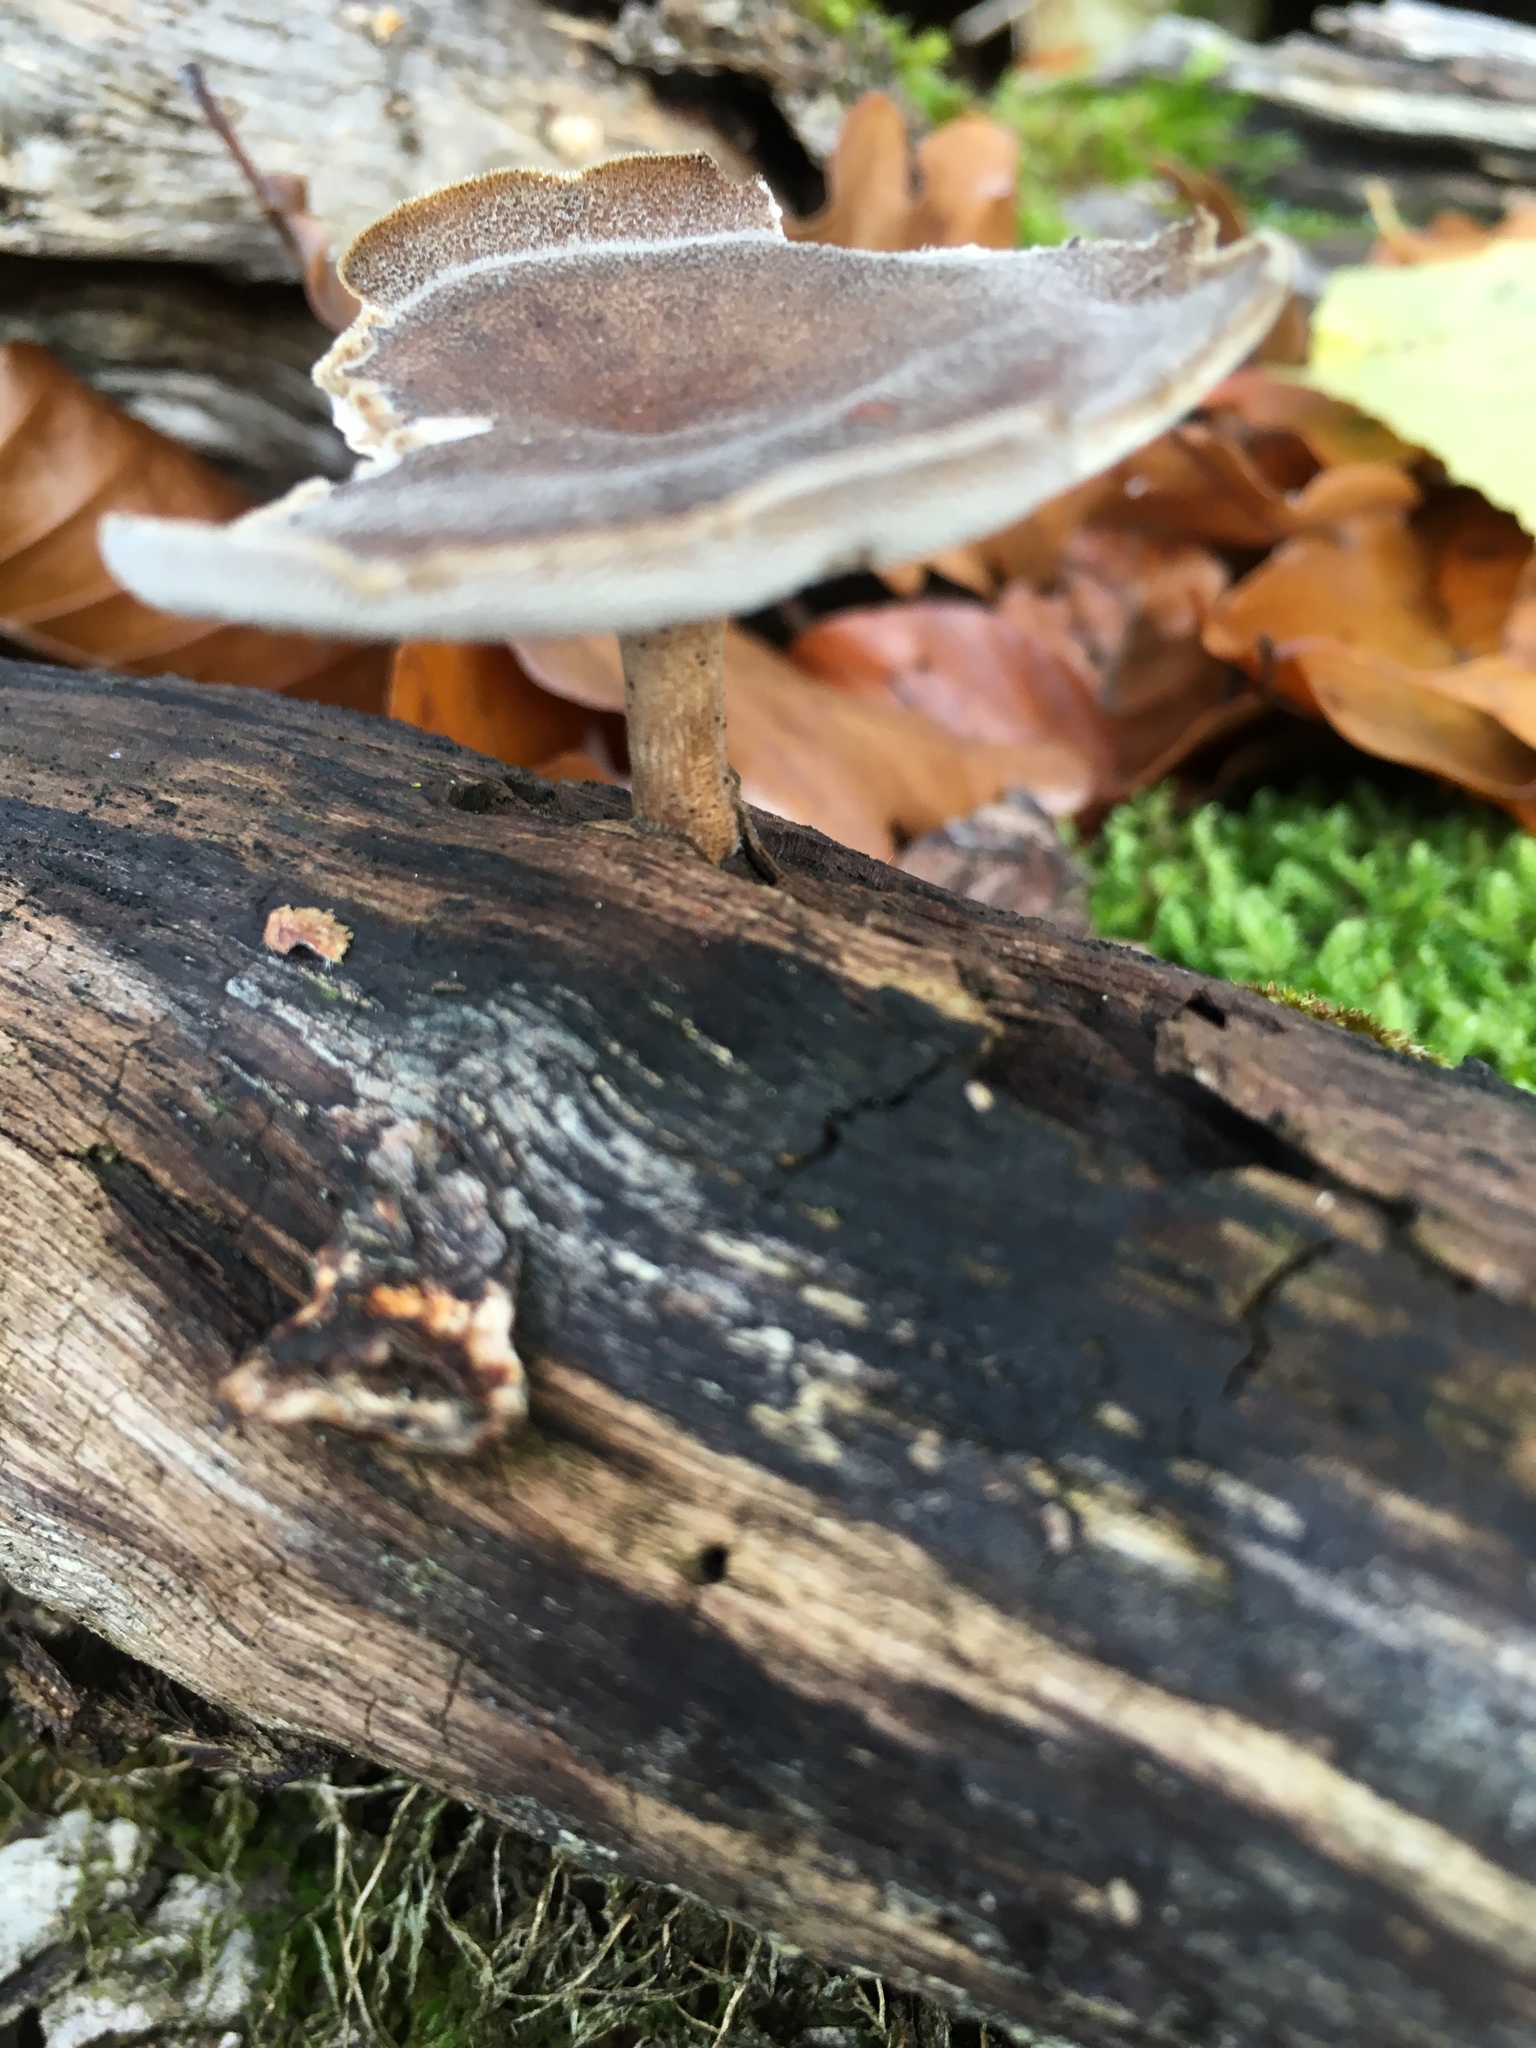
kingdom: Fungi
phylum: Basidiomycota
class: Agaricomycetes
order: Polyporales
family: Polyporaceae
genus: Lentinus
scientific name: Lentinus brumalis
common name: Winter polypore
